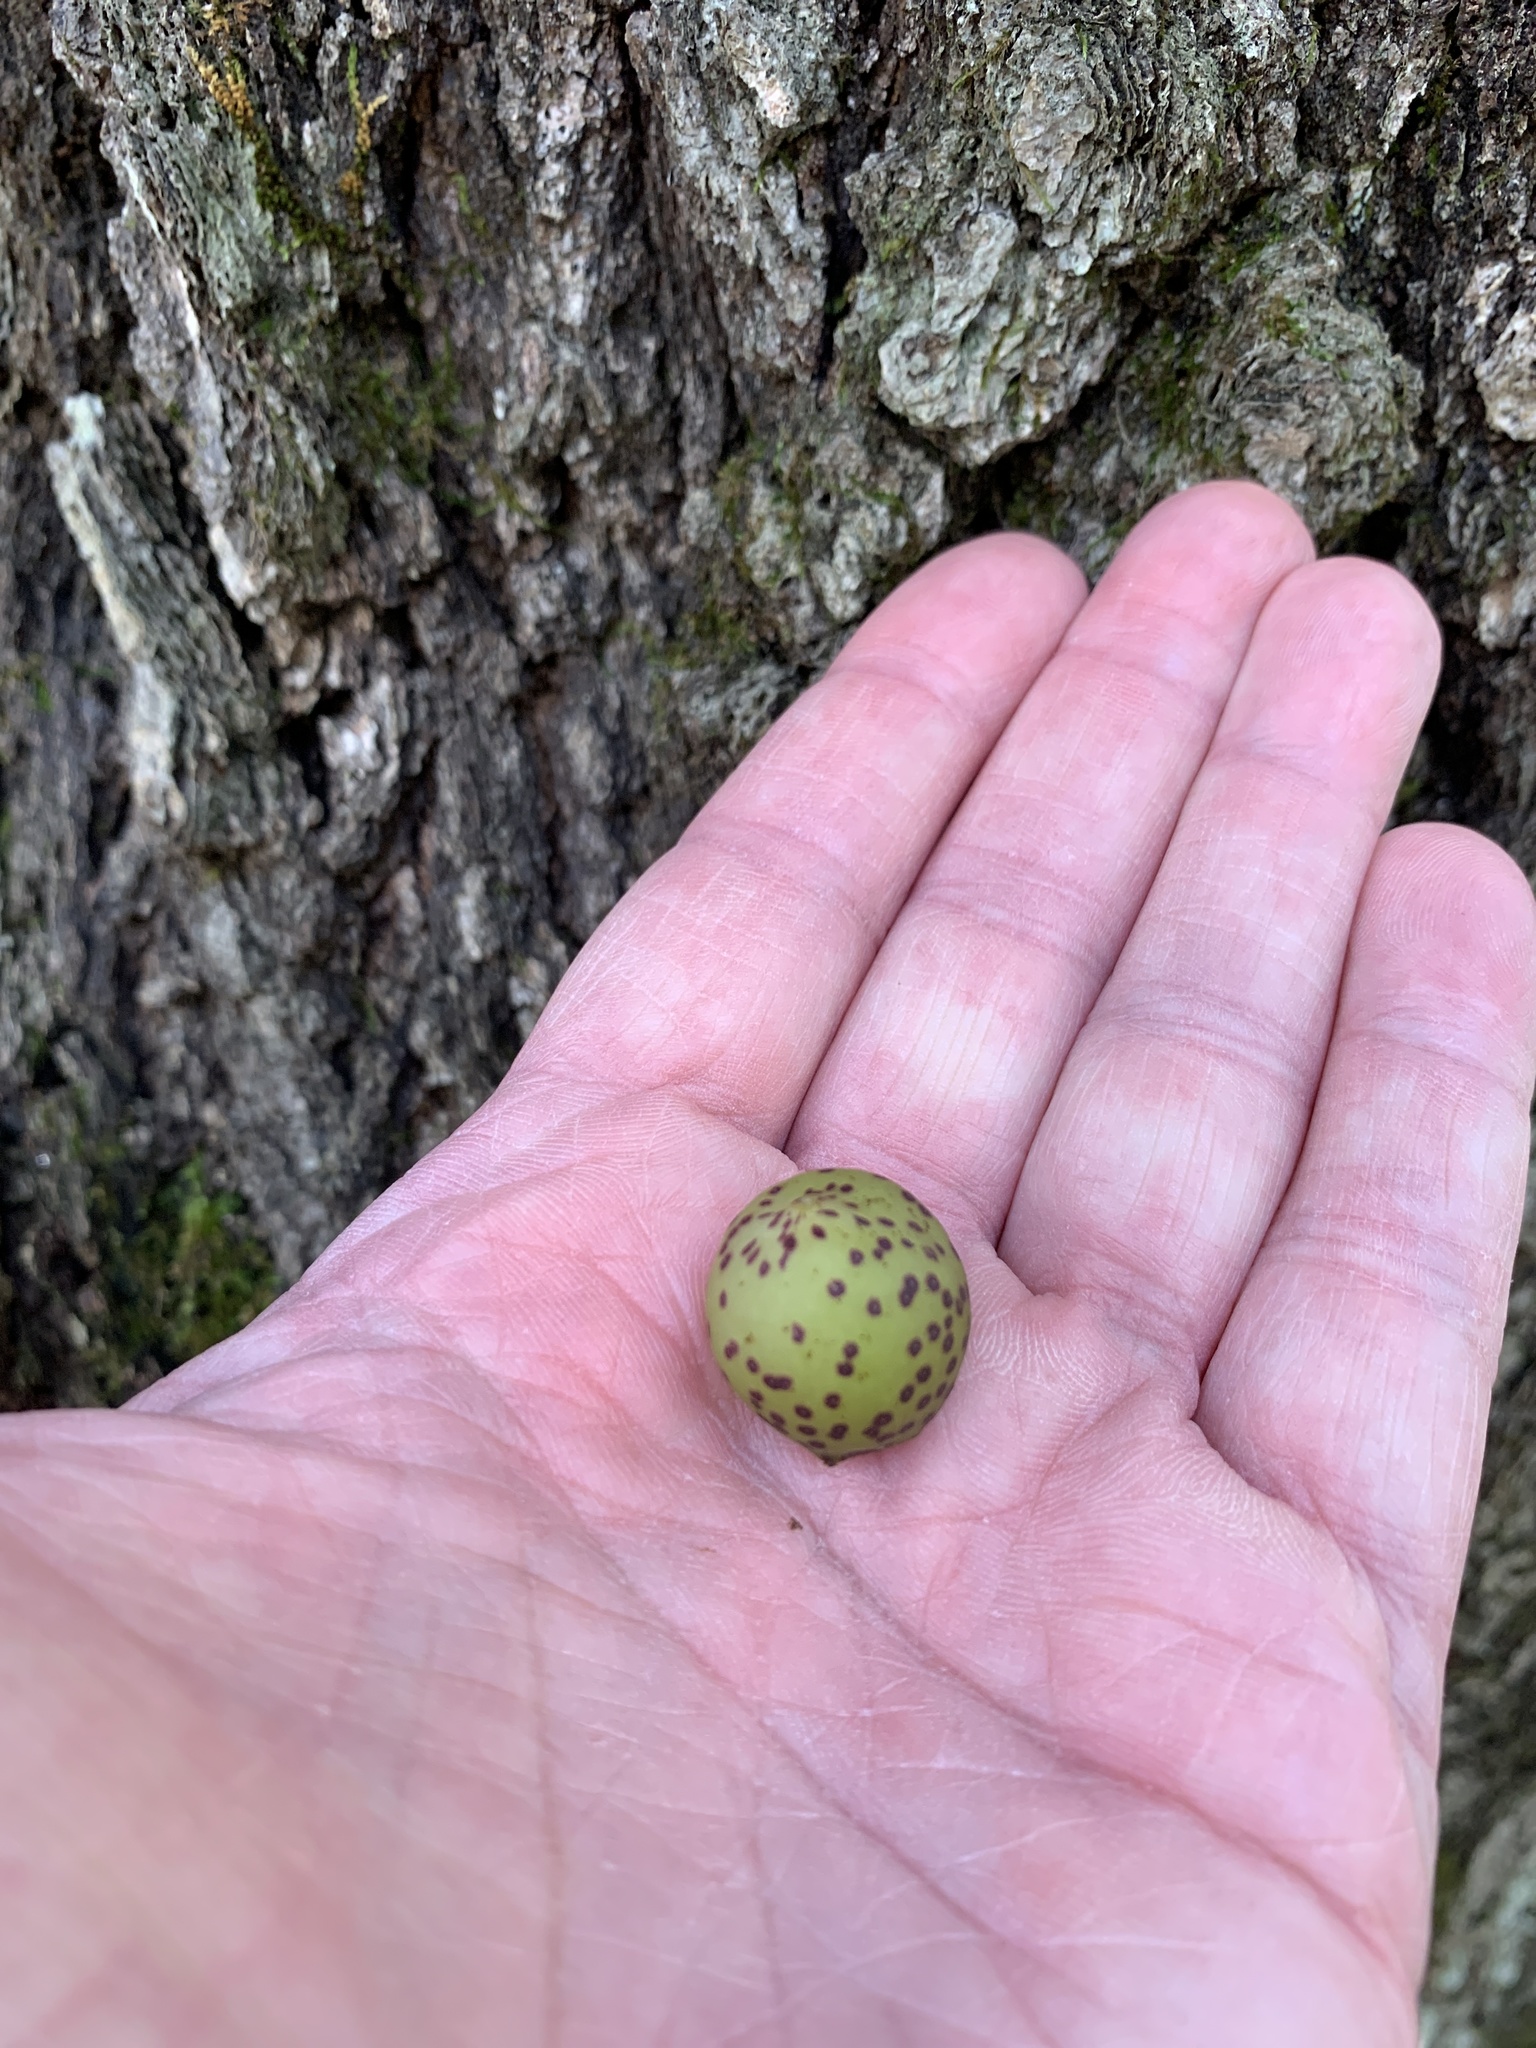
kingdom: Animalia
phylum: Arthropoda
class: Insecta
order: Hymenoptera
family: Cynipidae
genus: Amphibolips
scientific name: Amphibolips
